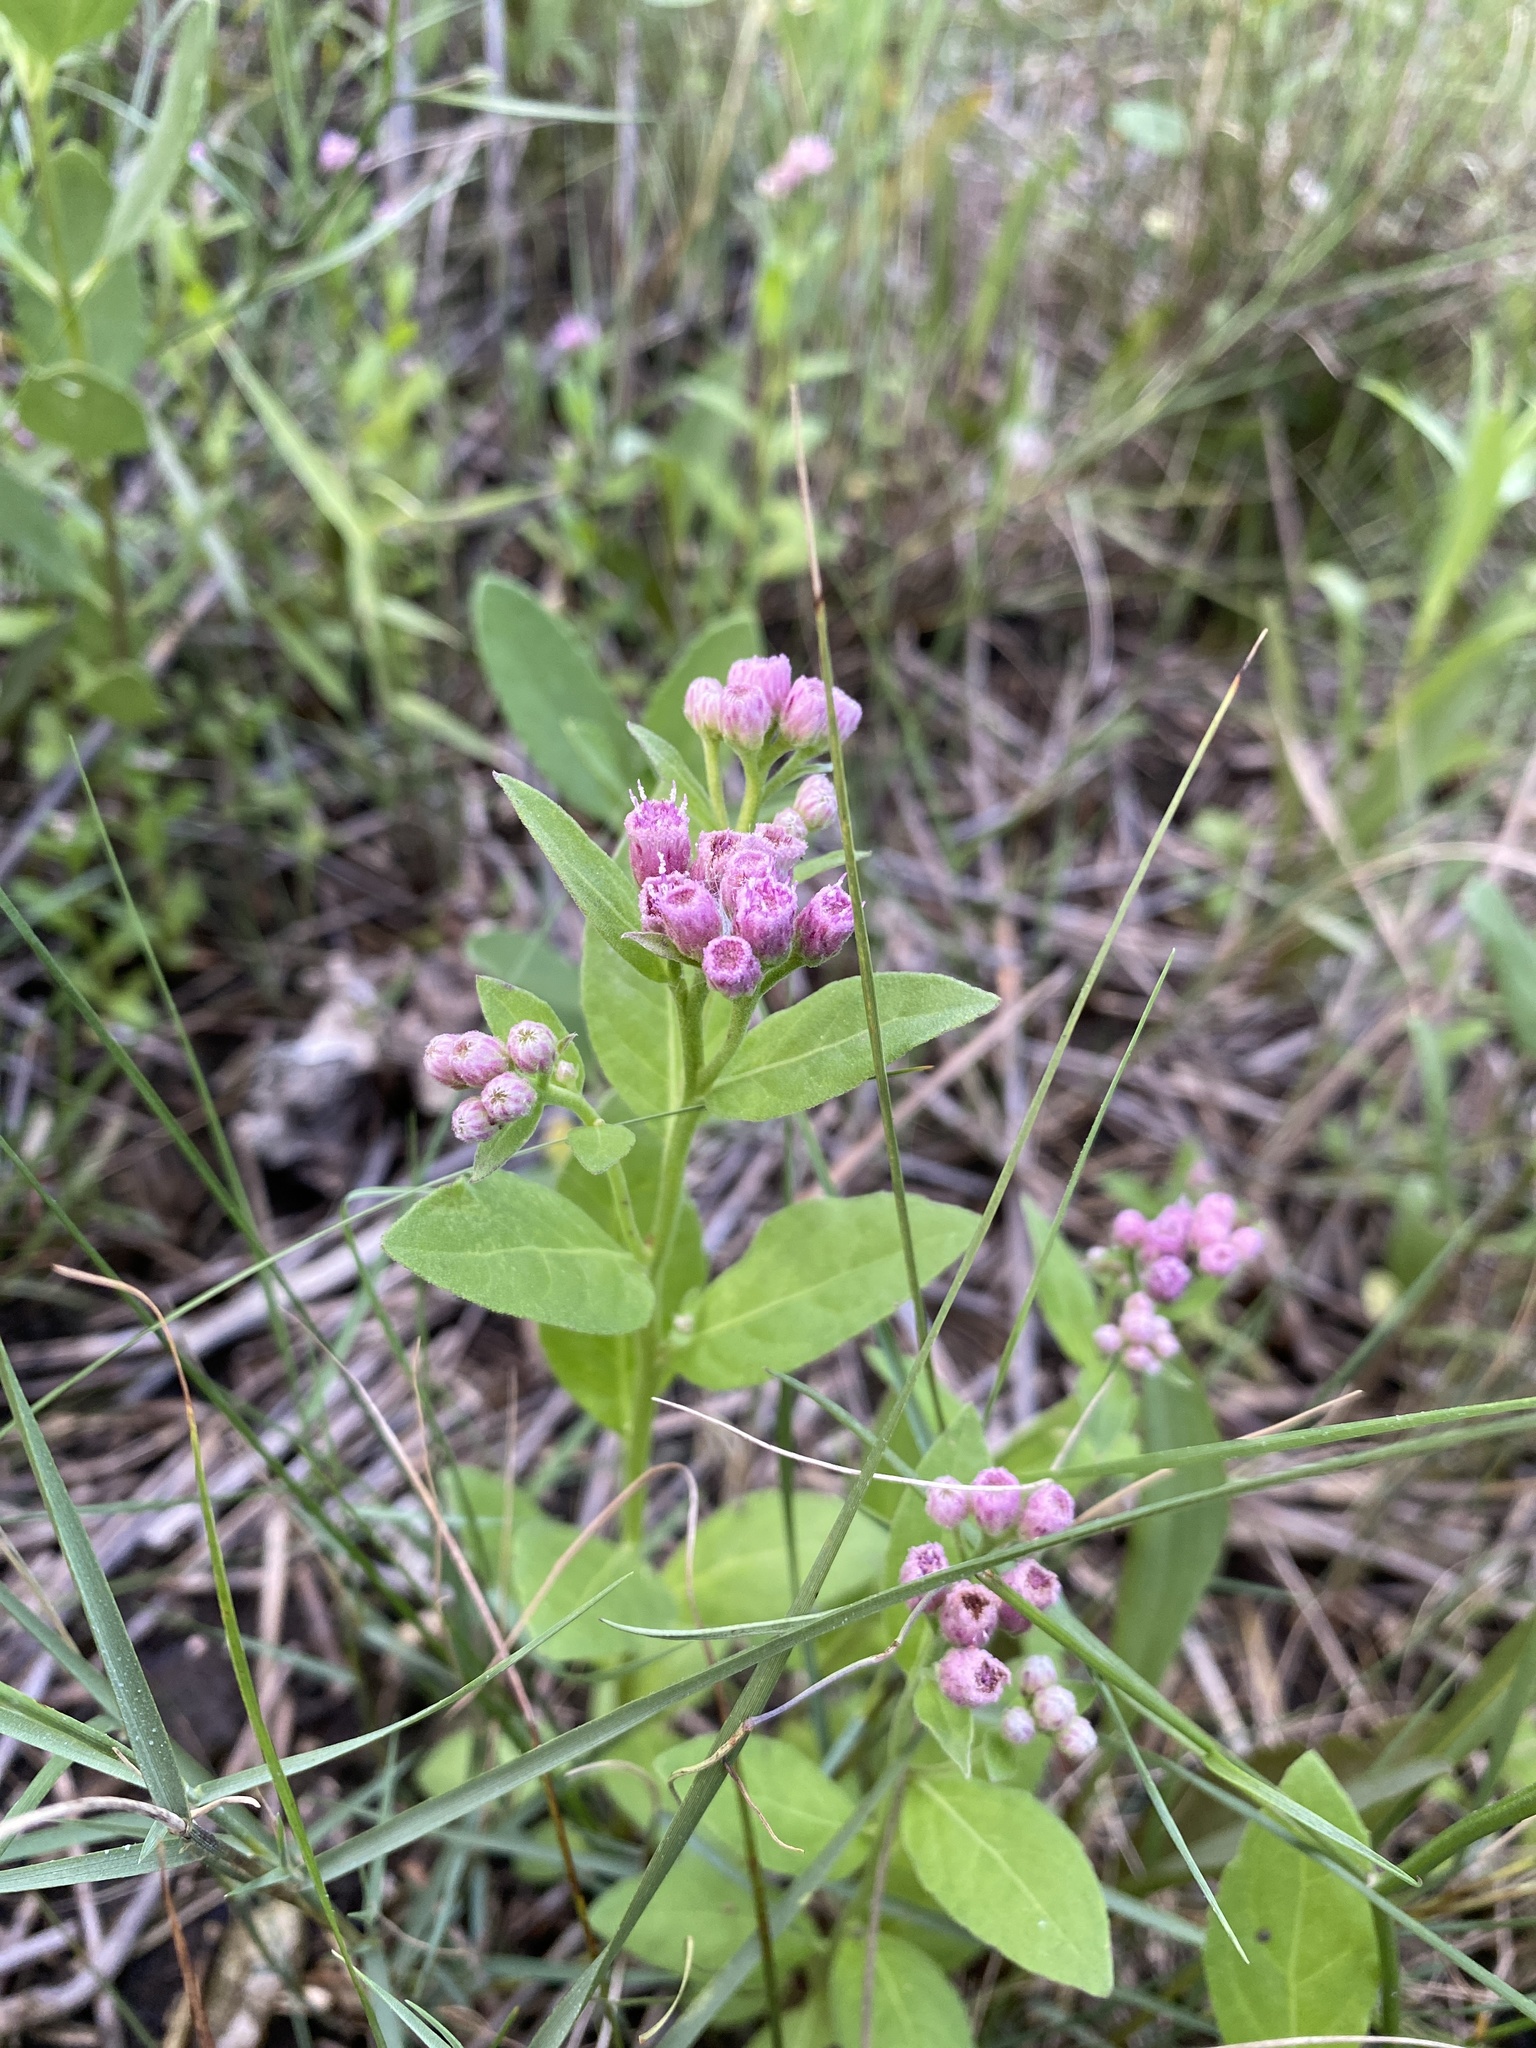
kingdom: Plantae
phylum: Tracheophyta
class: Magnoliopsida
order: Asterales
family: Asteraceae
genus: Pluchea
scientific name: Pluchea odorata
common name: Saltmarsh fleabane
